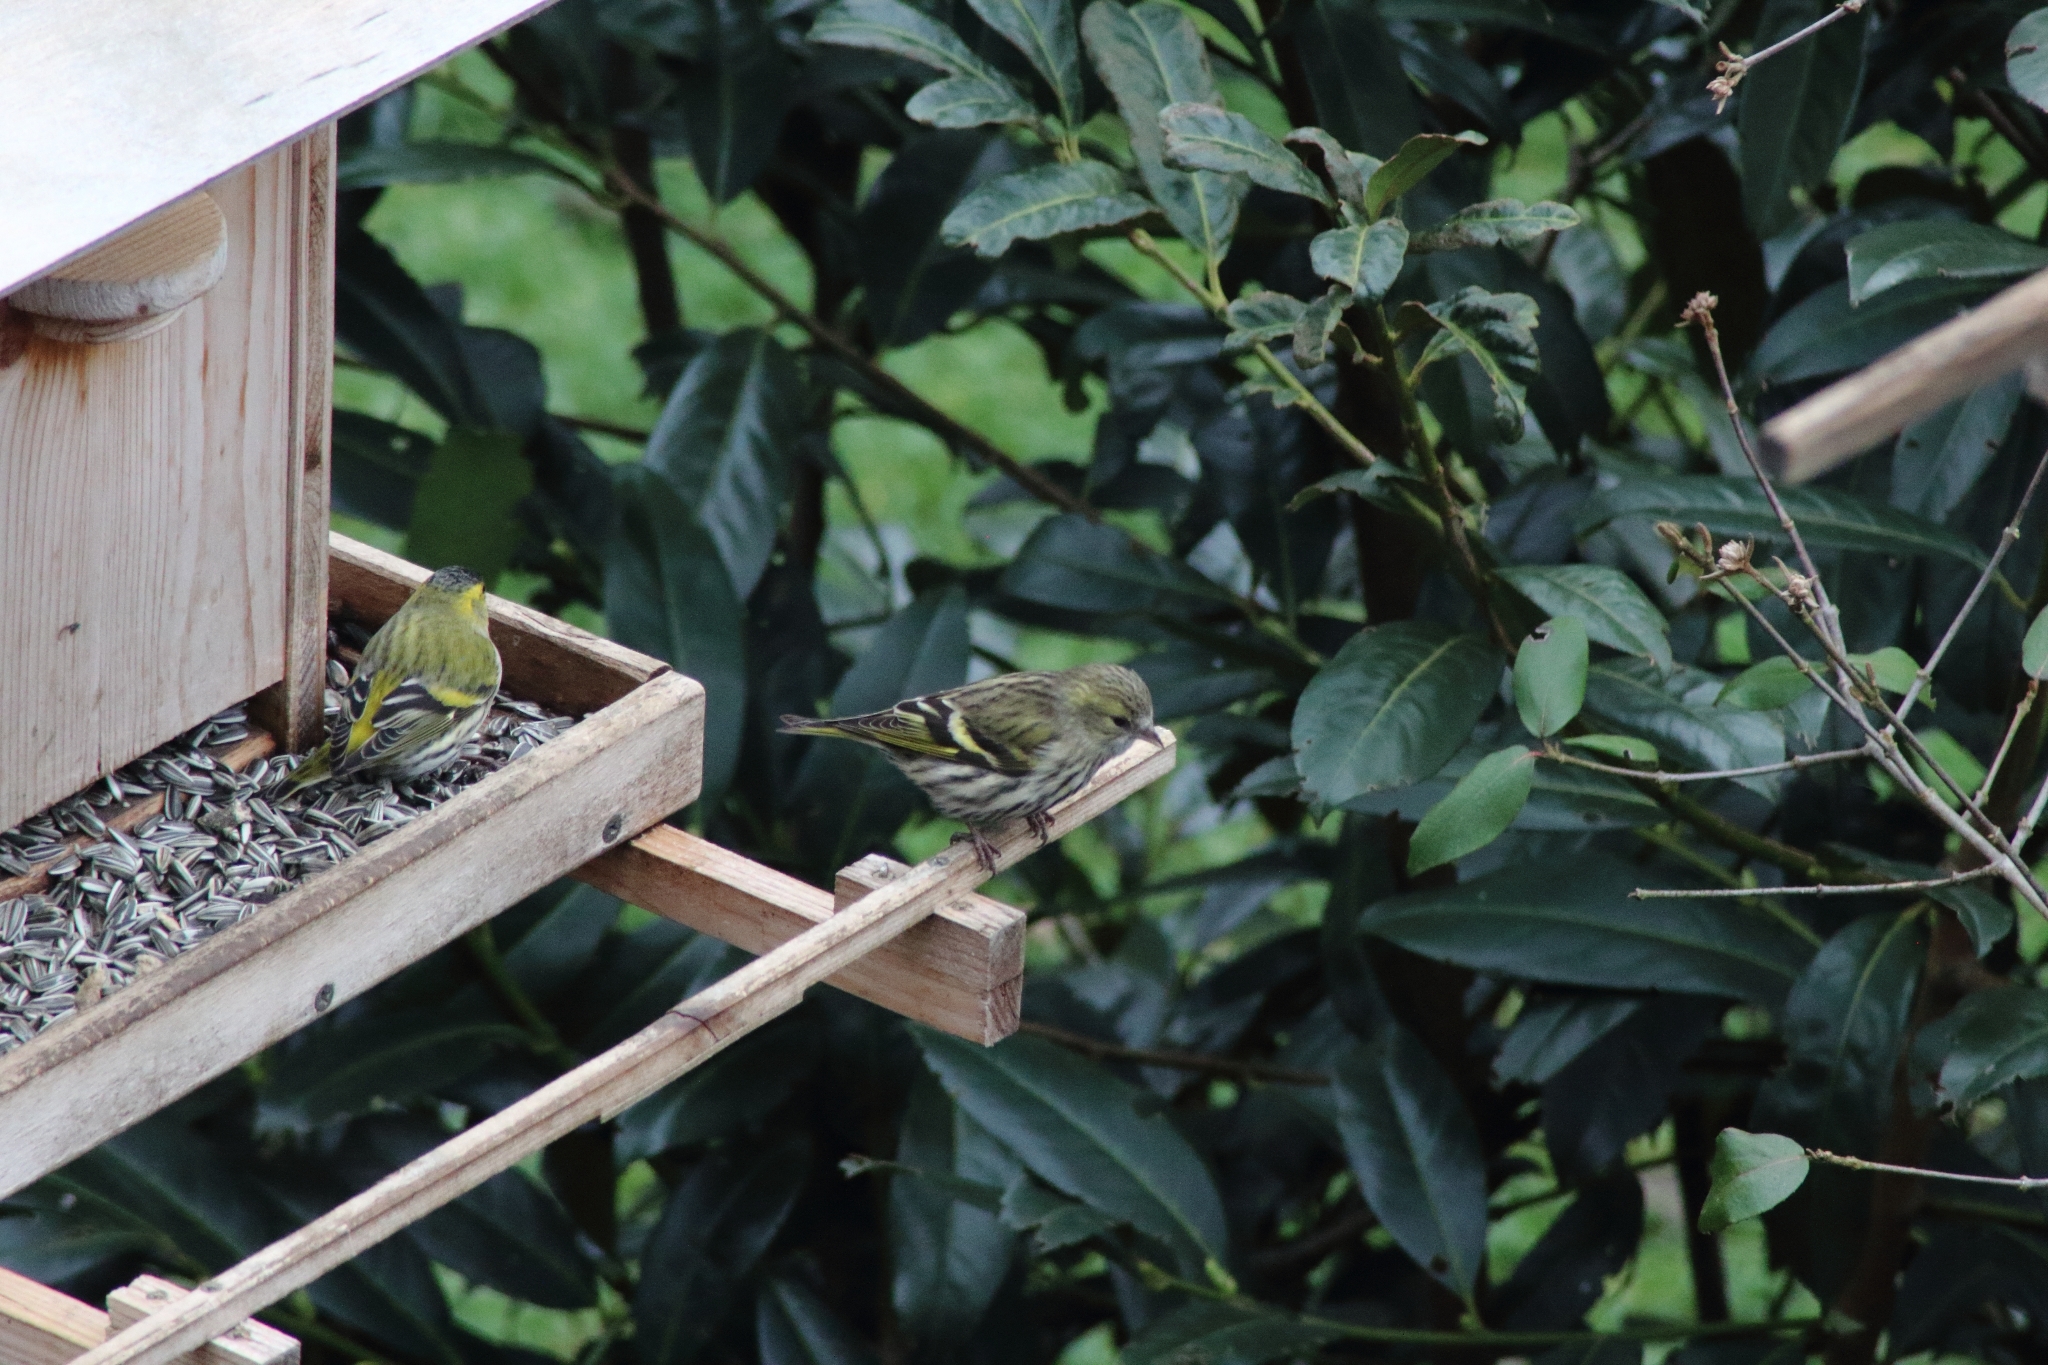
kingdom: Animalia
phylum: Chordata
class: Aves
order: Passeriformes
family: Fringillidae
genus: Spinus
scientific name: Spinus spinus
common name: Eurasian siskin
